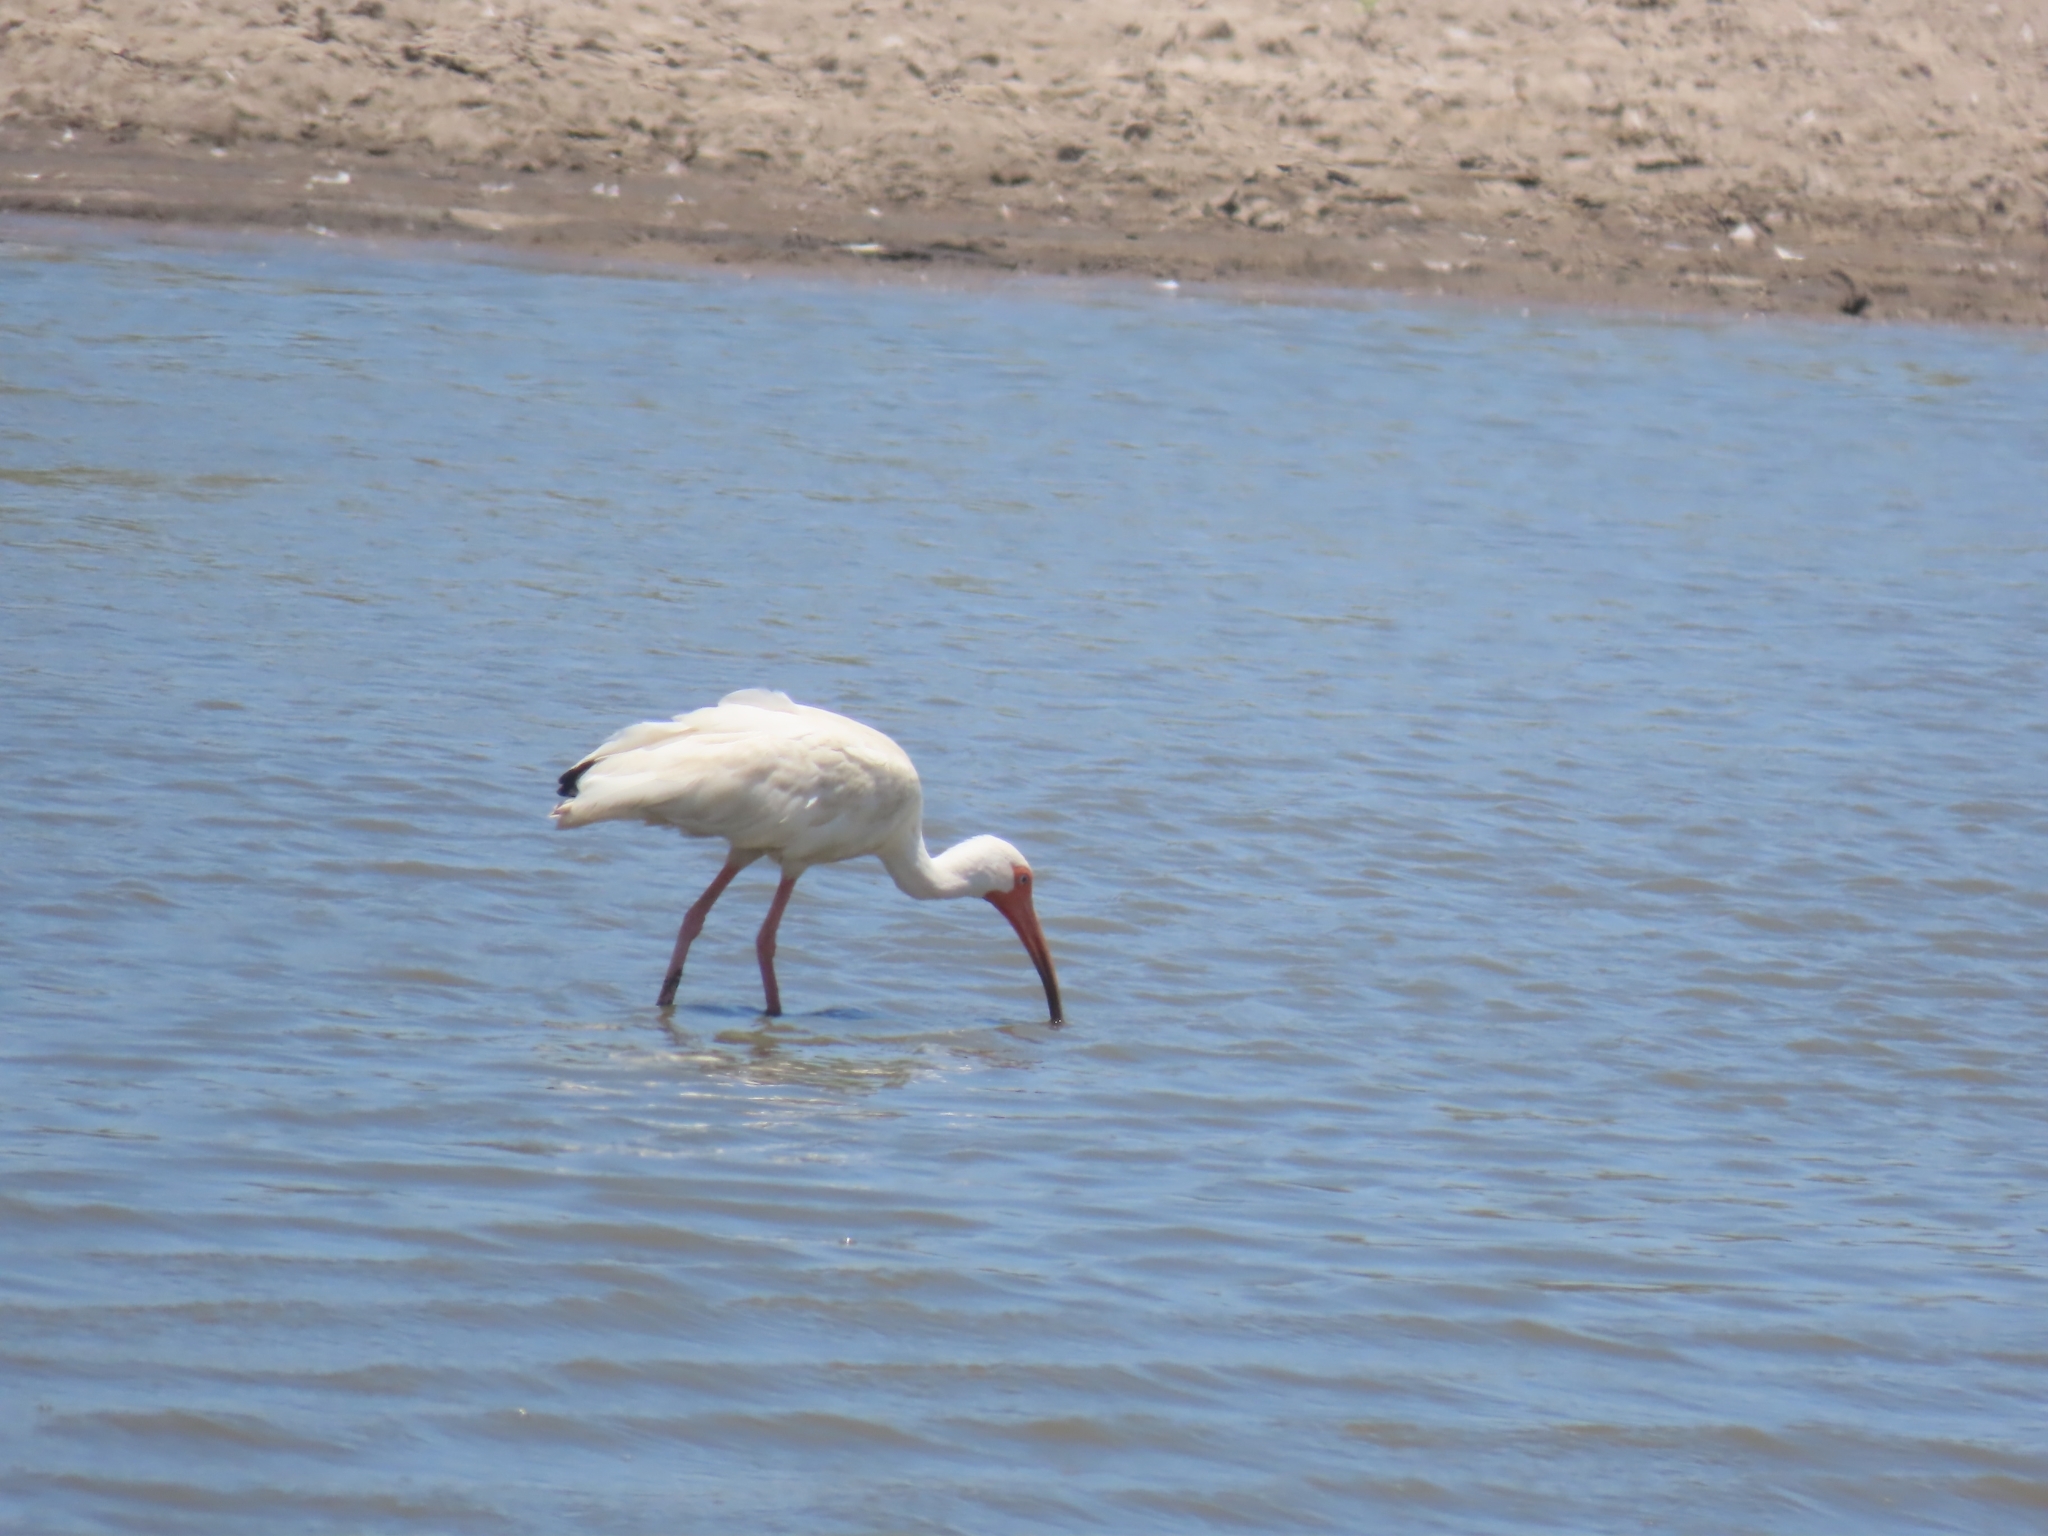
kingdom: Animalia
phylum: Chordata
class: Aves
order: Pelecaniformes
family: Threskiornithidae
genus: Eudocimus
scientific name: Eudocimus albus
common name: White ibis
